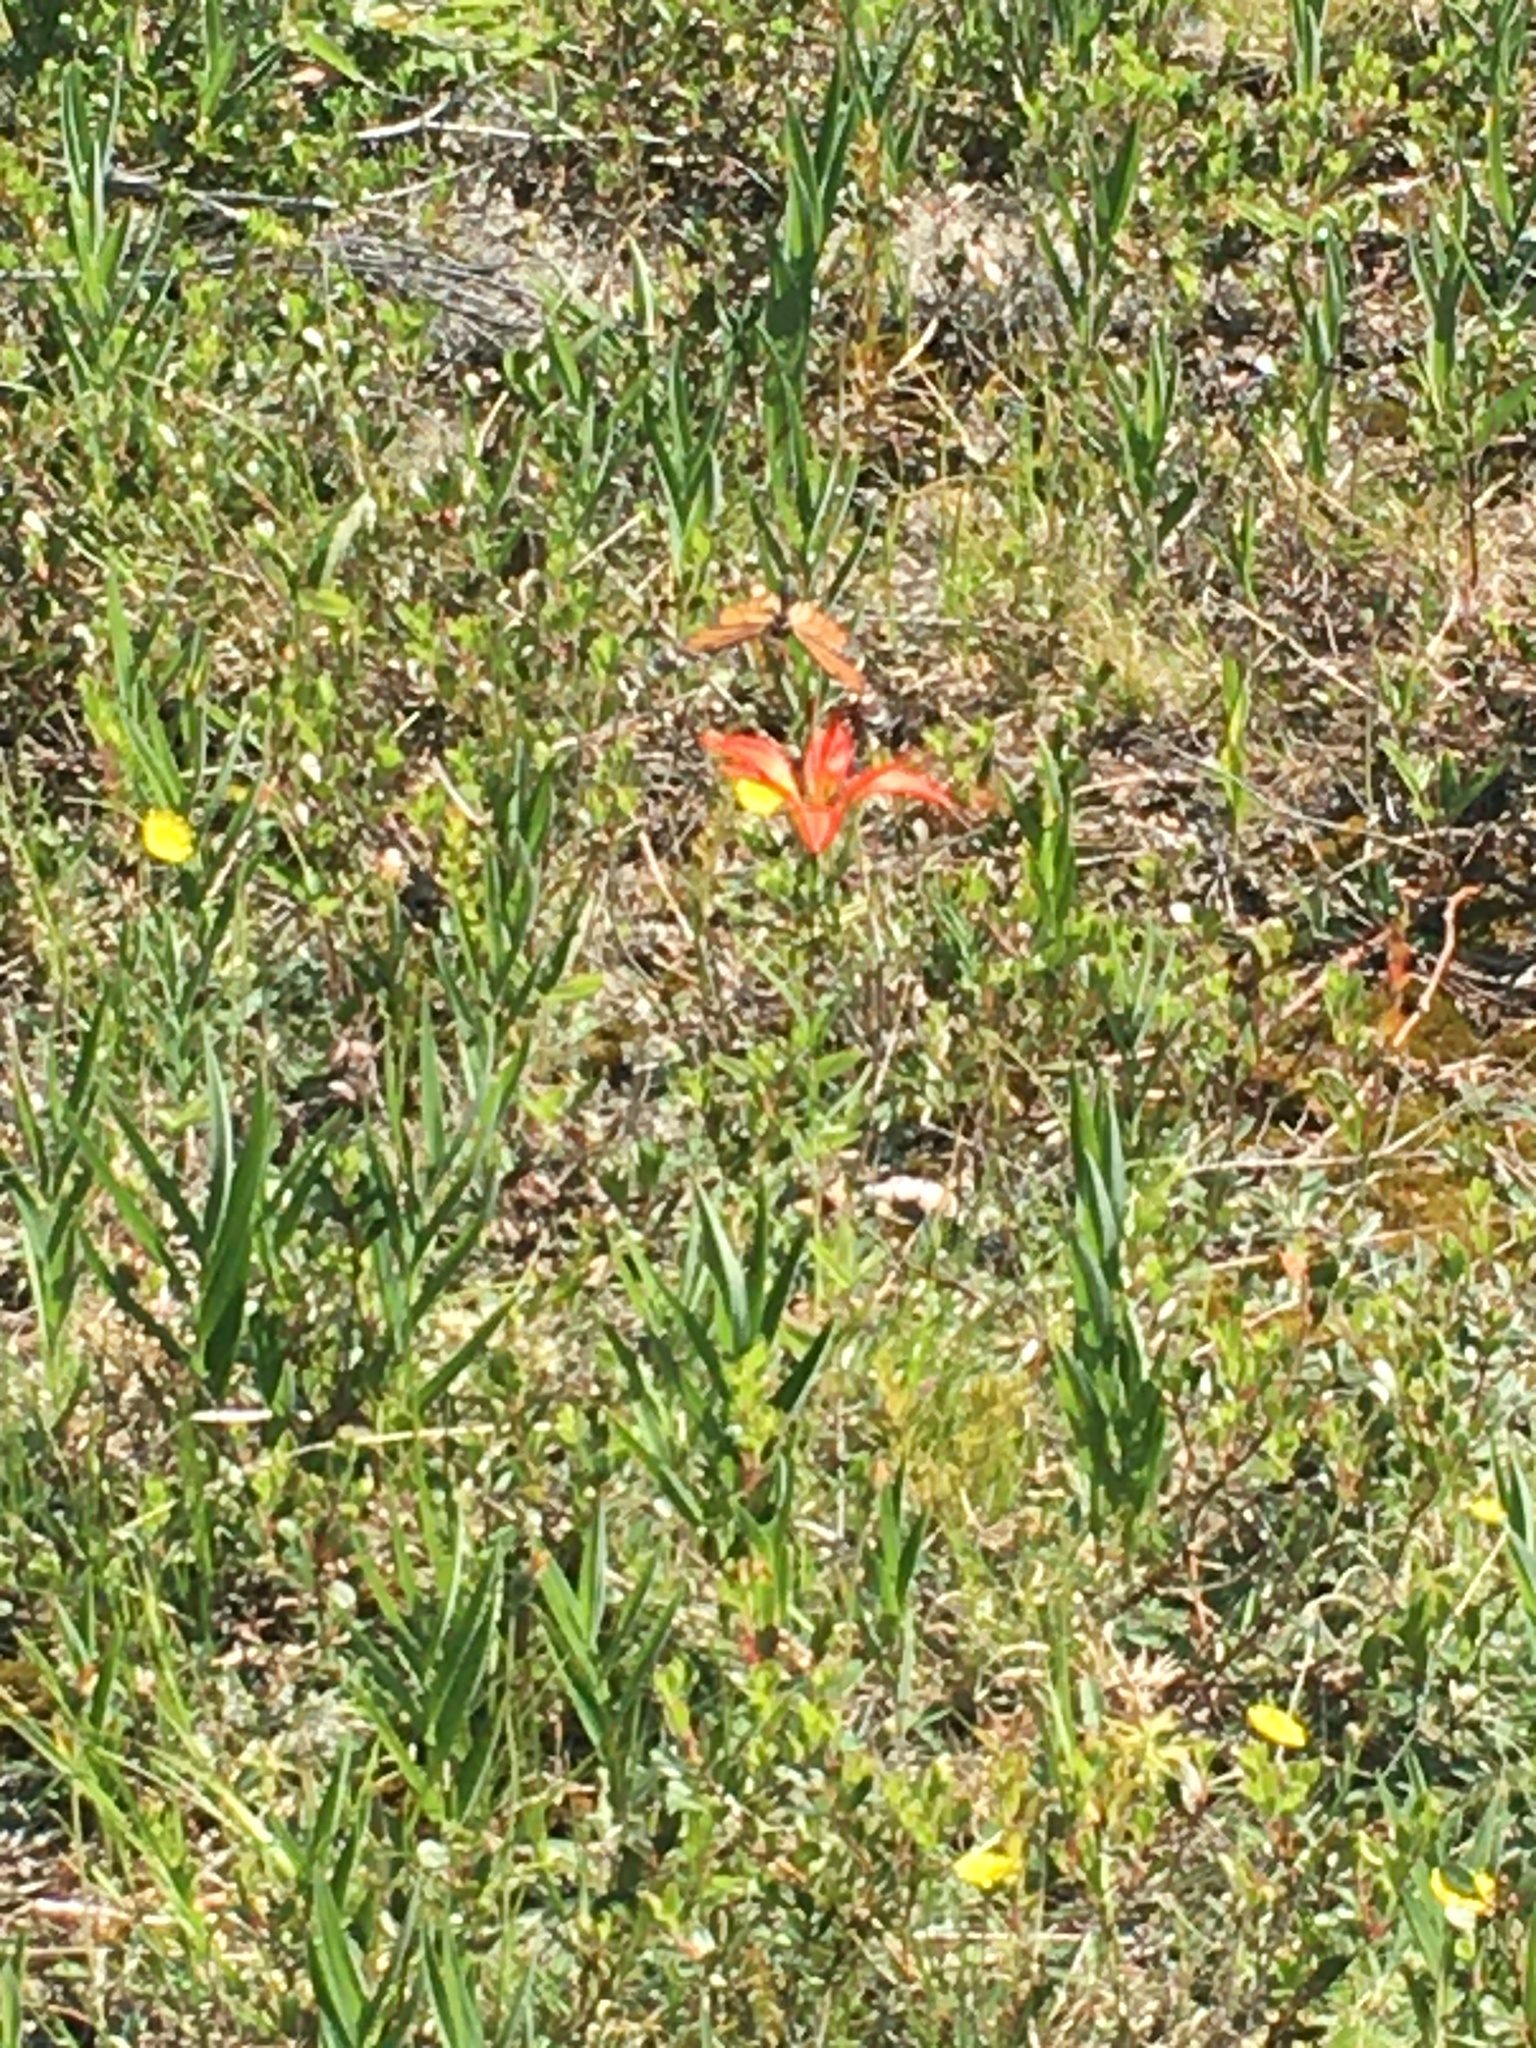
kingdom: Animalia
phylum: Arthropoda
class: Insecta
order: Lepidoptera
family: Nymphalidae
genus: Danaus
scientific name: Danaus plexippus
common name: Monarch
